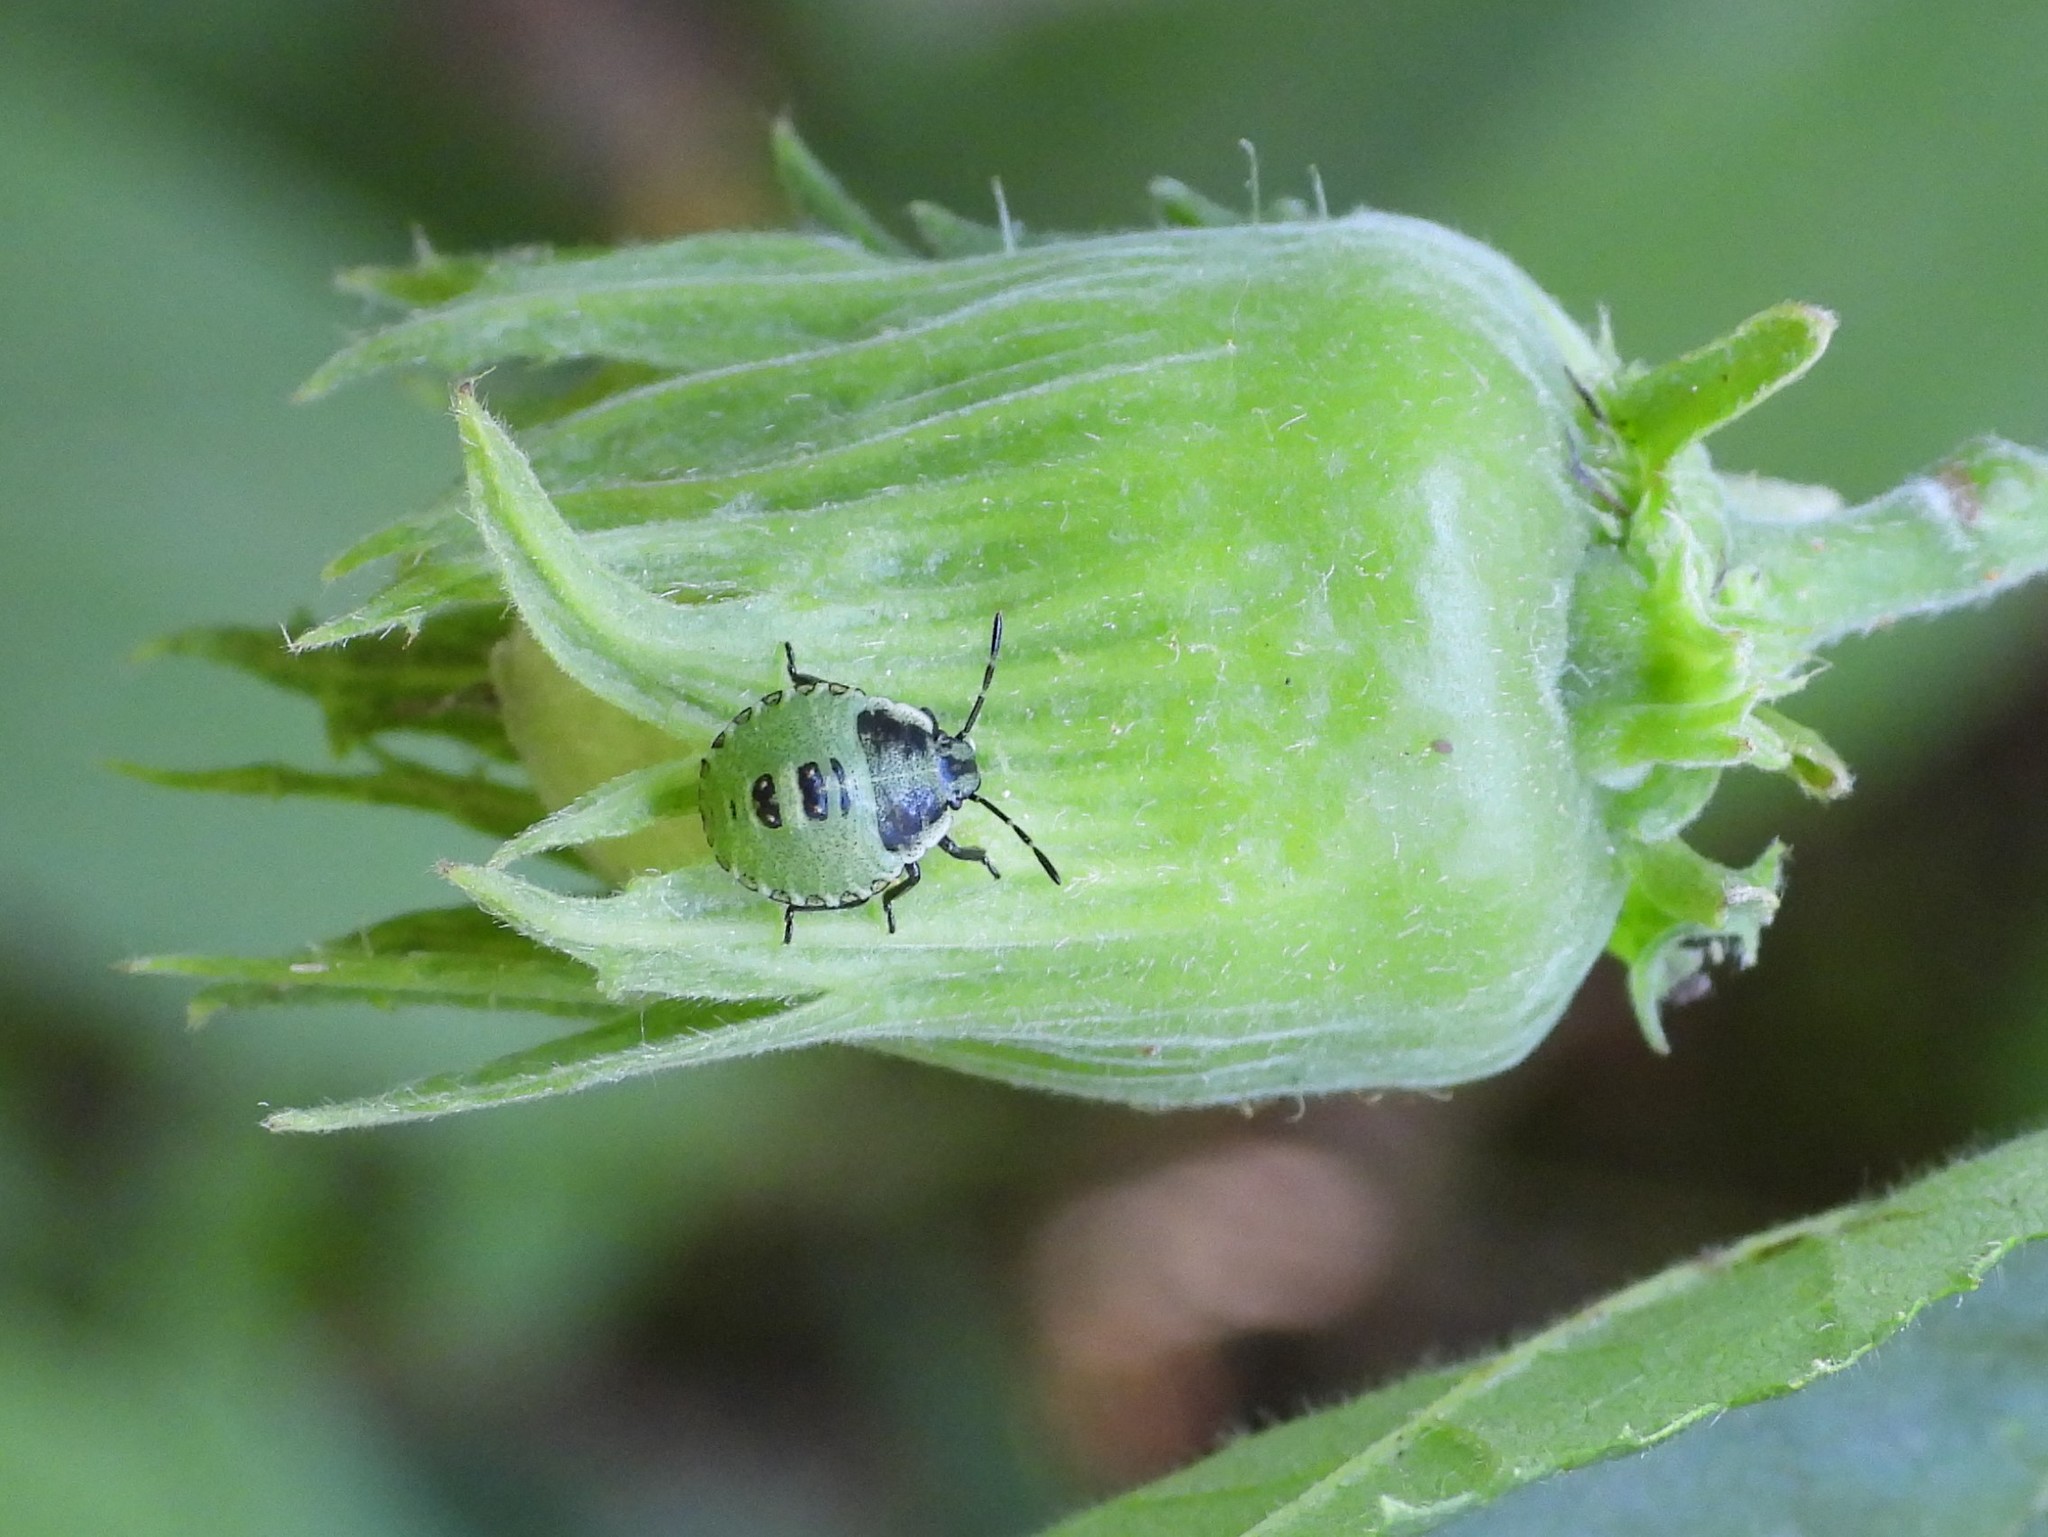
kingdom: Animalia
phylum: Arthropoda
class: Insecta
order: Hemiptera
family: Pentatomidae
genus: Palomena
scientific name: Palomena prasina
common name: Green shieldbug
